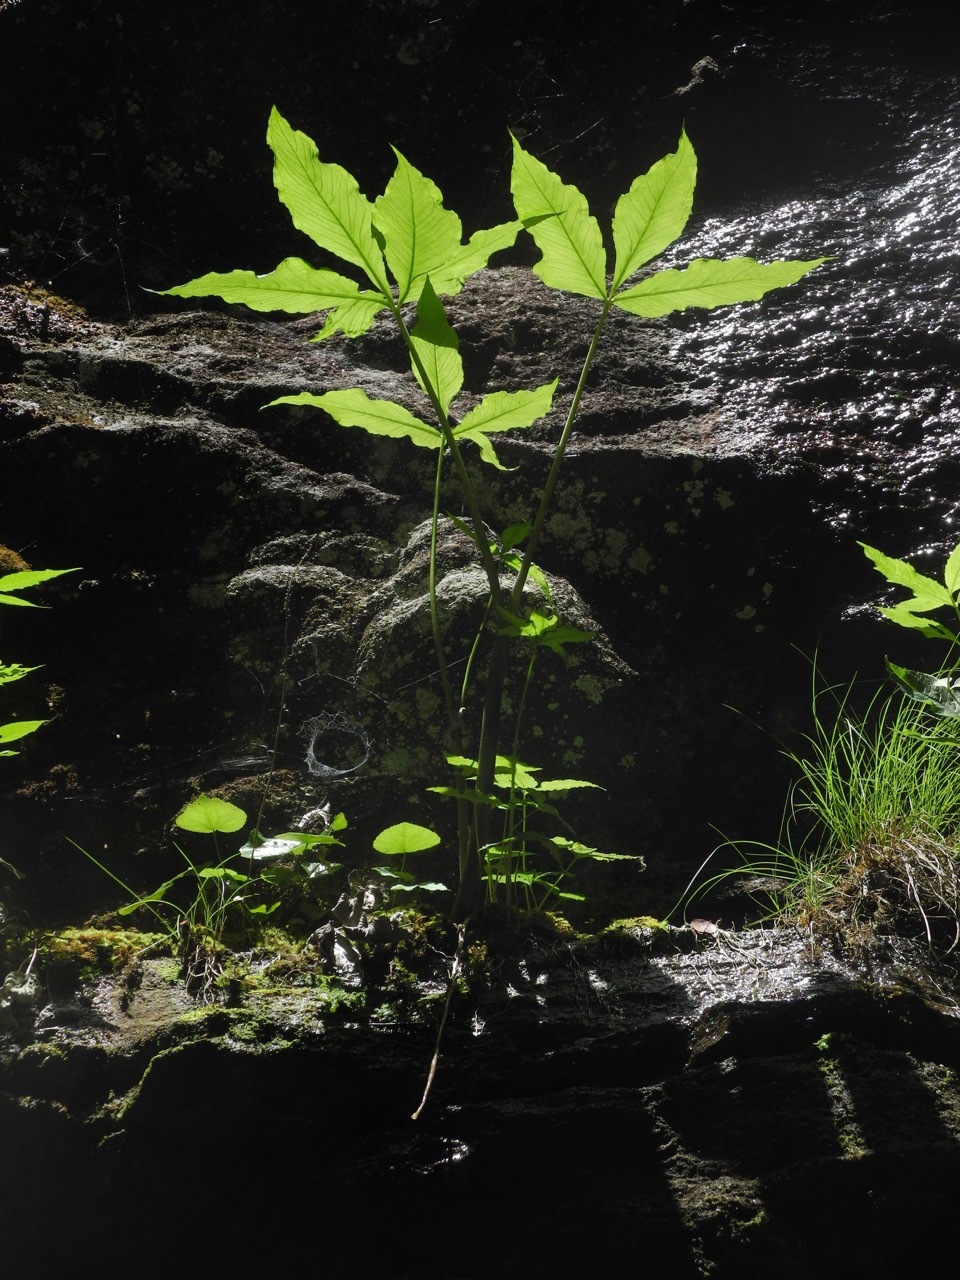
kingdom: Plantae
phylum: Tracheophyta
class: Liliopsida
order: Alismatales
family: Araceae
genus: Arisaema
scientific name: Arisaema quinatum
